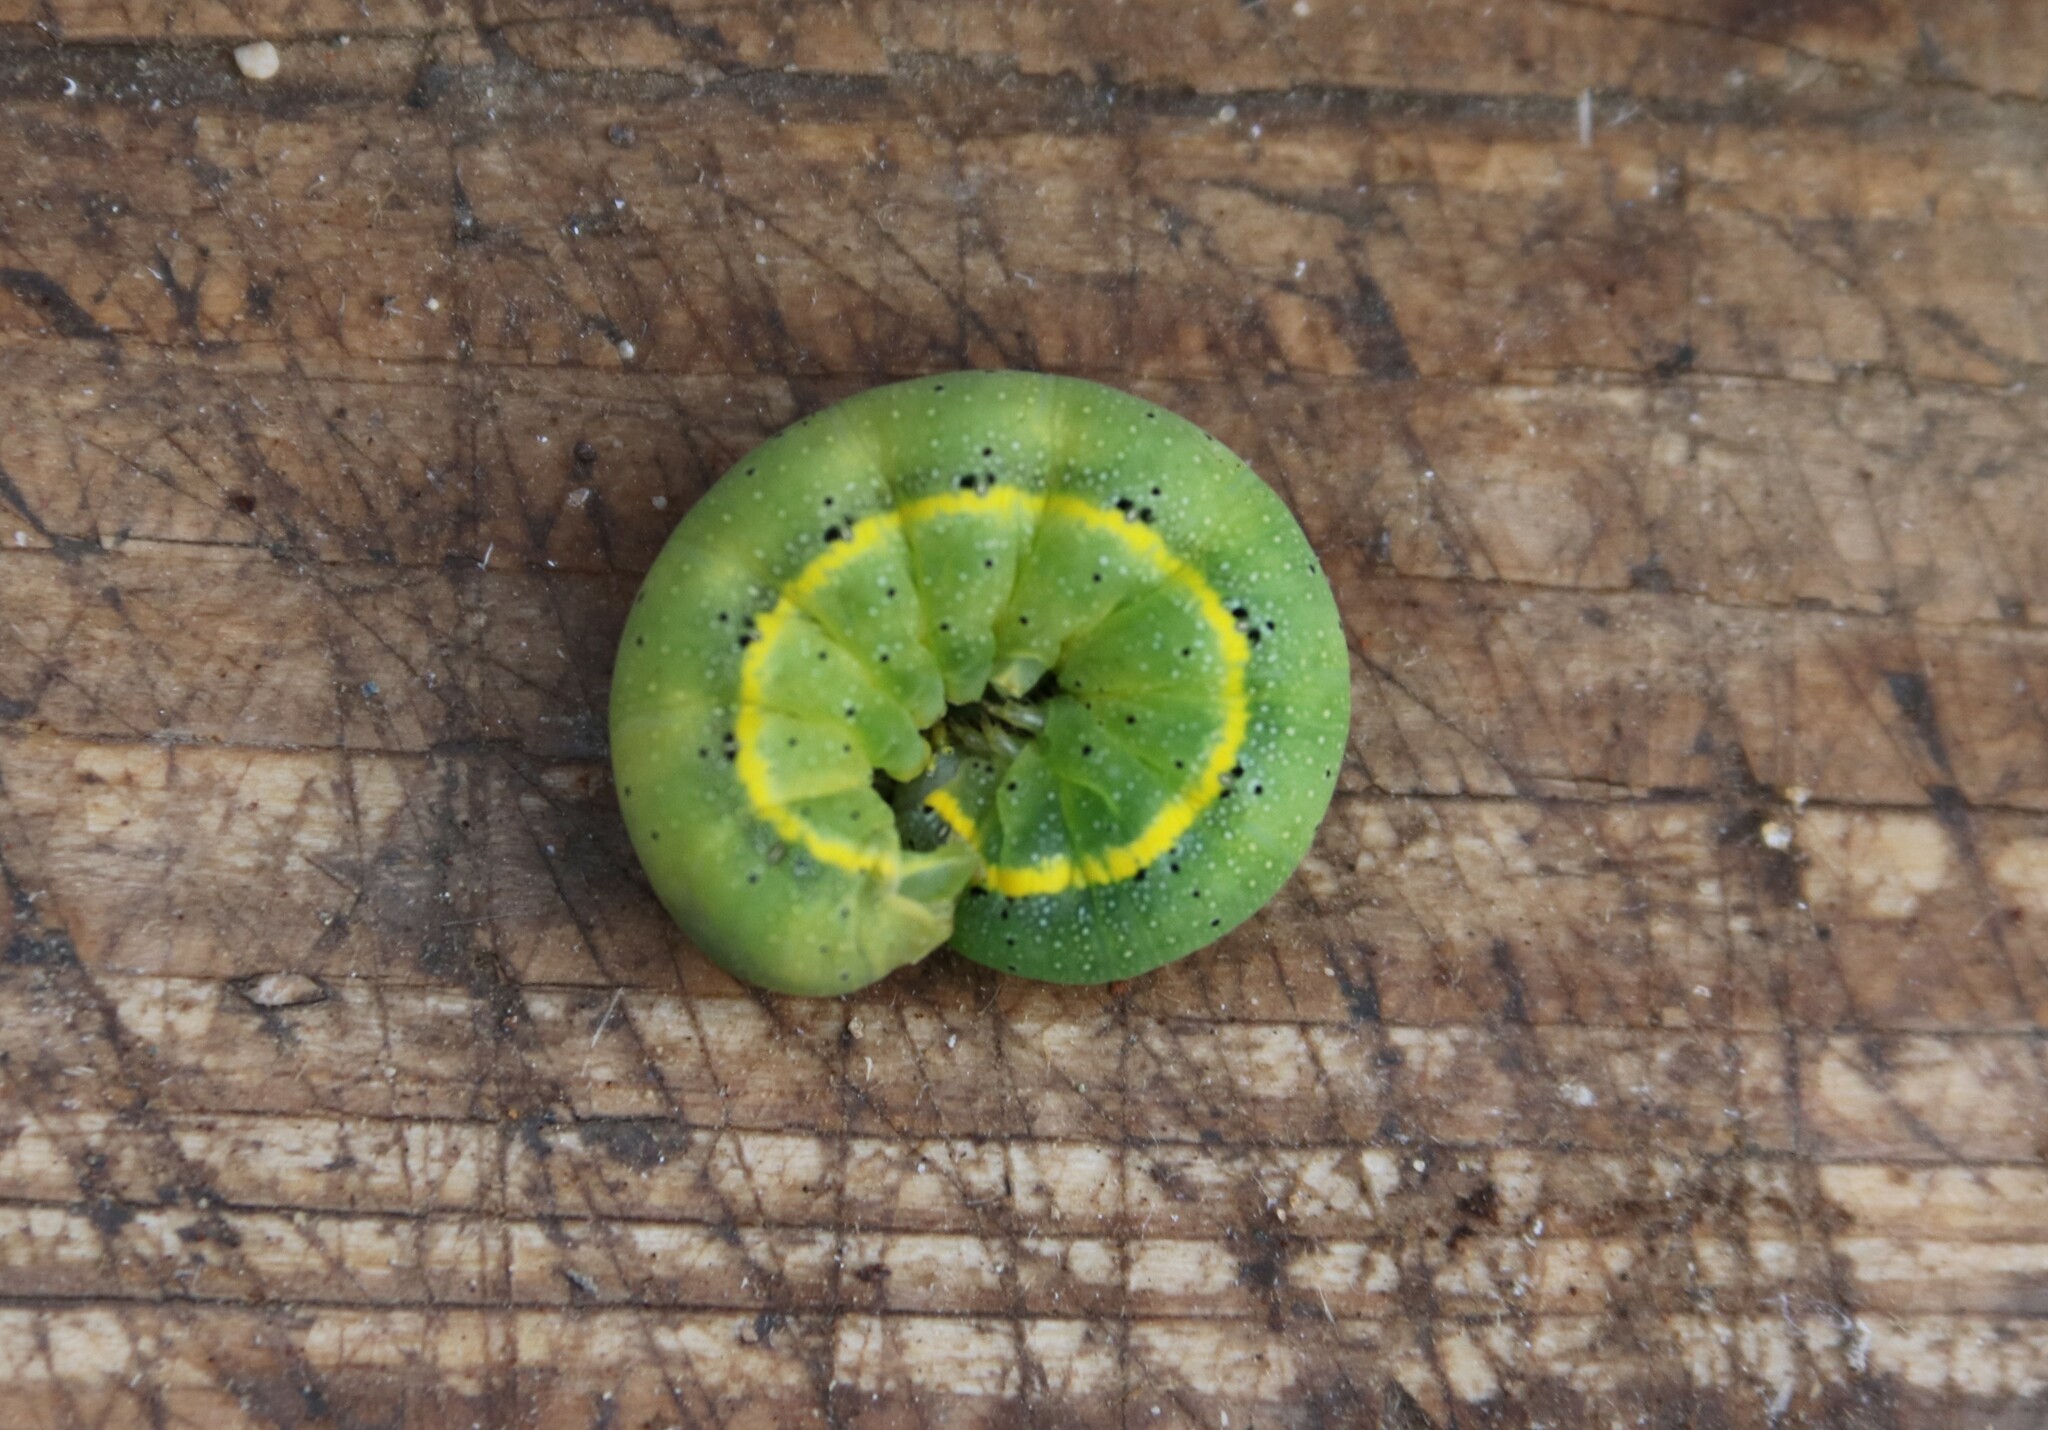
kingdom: Animalia
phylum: Arthropoda
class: Insecta
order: Lepidoptera
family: Noctuidae
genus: Lacanobia
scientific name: Lacanobia oleracea
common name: Bright-line brown-eye
